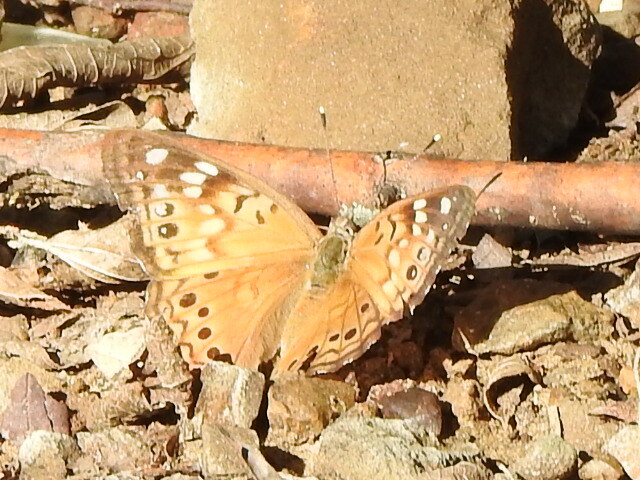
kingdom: Animalia
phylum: Arthropoda
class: Insecta
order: Lepidoptera
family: Nymphalidae
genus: Asterocampa
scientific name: Asterocampa celtis
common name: Hackberry emperor
